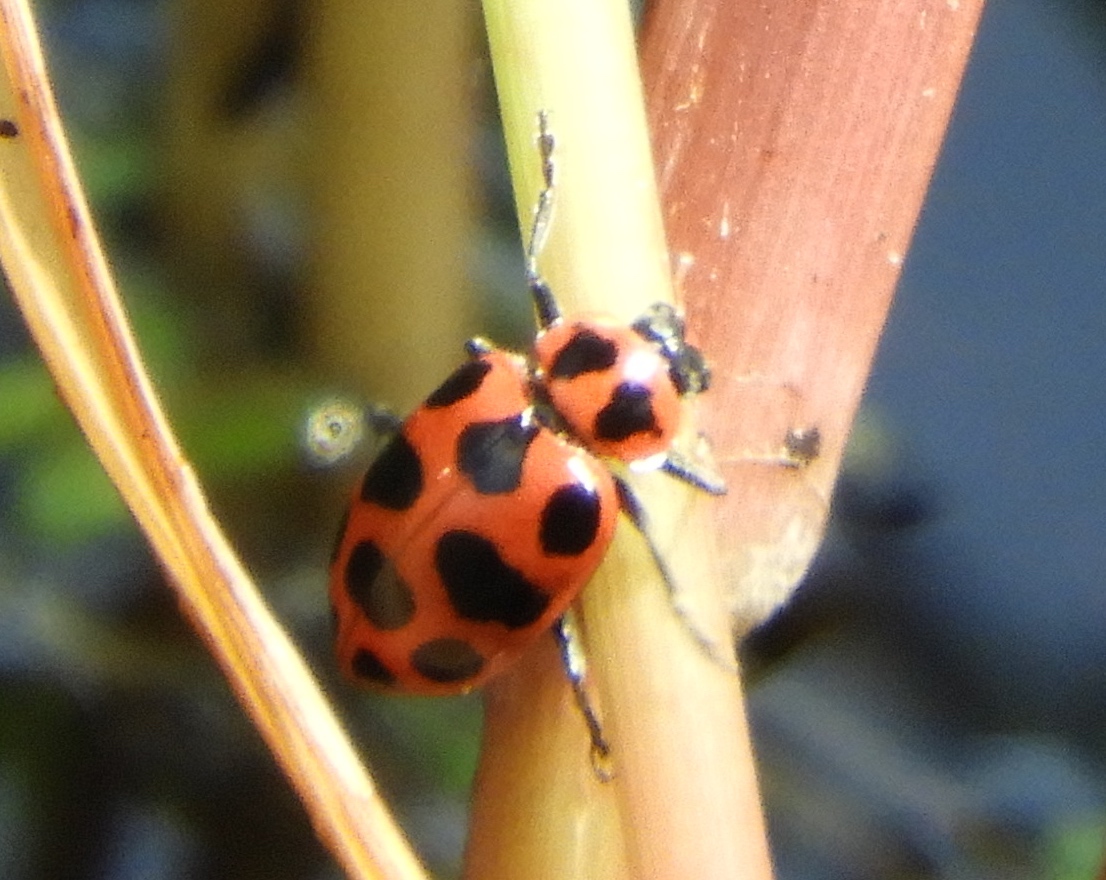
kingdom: Animalia
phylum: Arthropoda
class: Insecta
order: Coleoptera
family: Coccinellidae
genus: Coleomegilla
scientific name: Coleomegilla maculata
